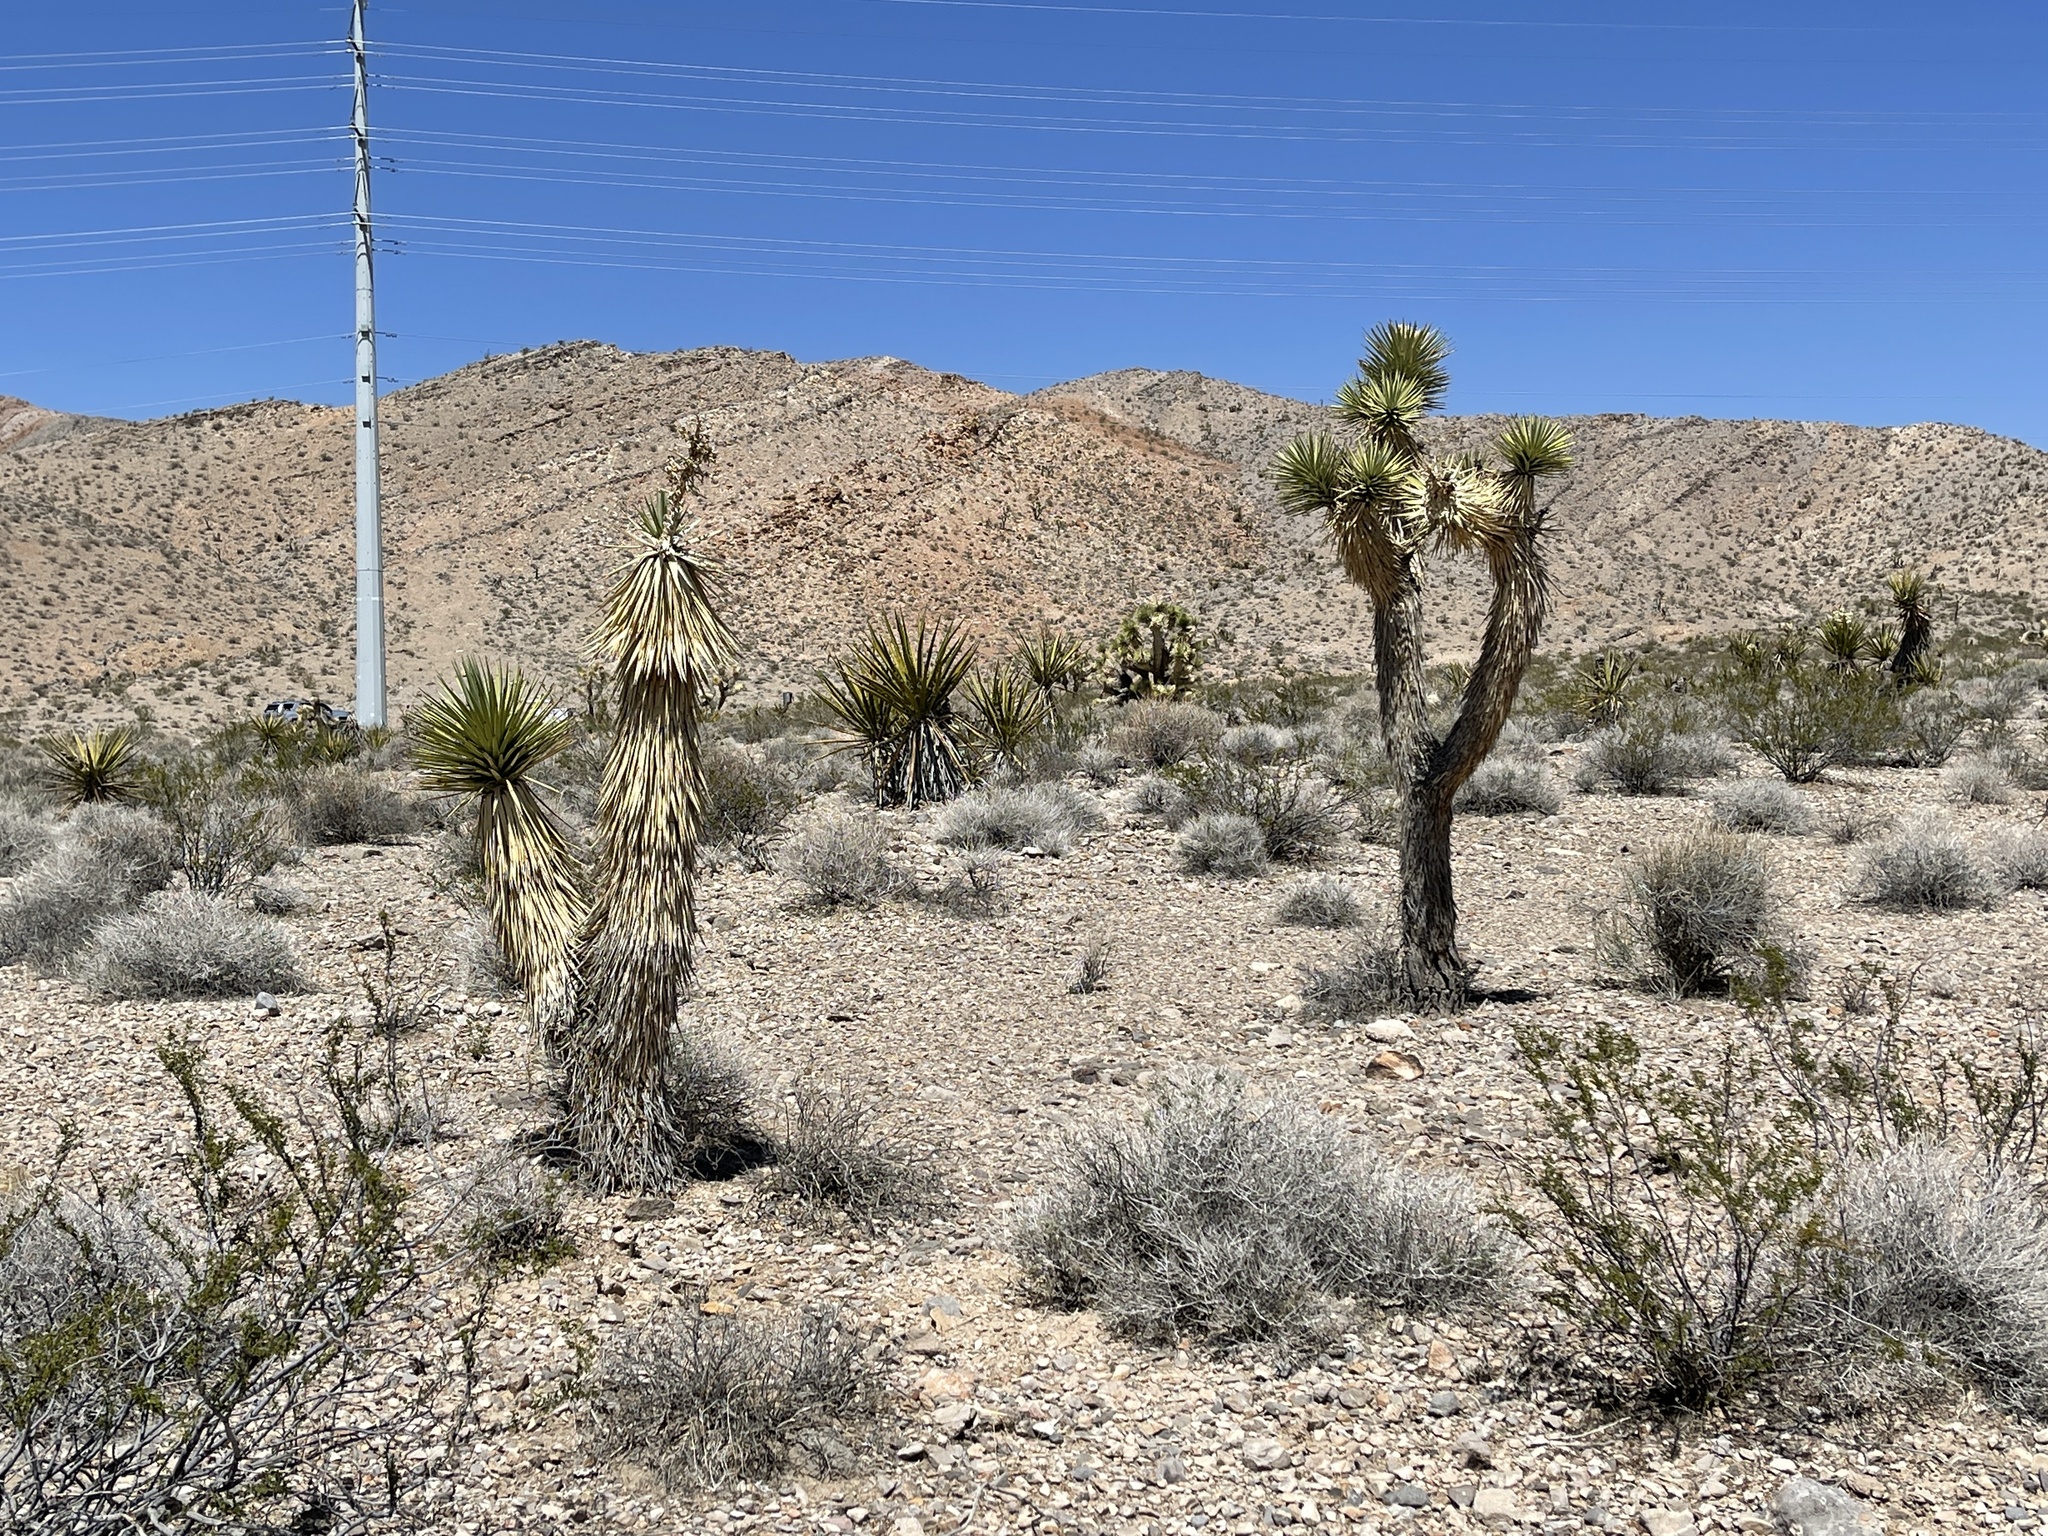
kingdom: Plantae
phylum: Tracheophyta
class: Liliopsida
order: Asparagales
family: Asparagaceae
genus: Yucca
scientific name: Yucca brevifolia
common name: Joshua tree
